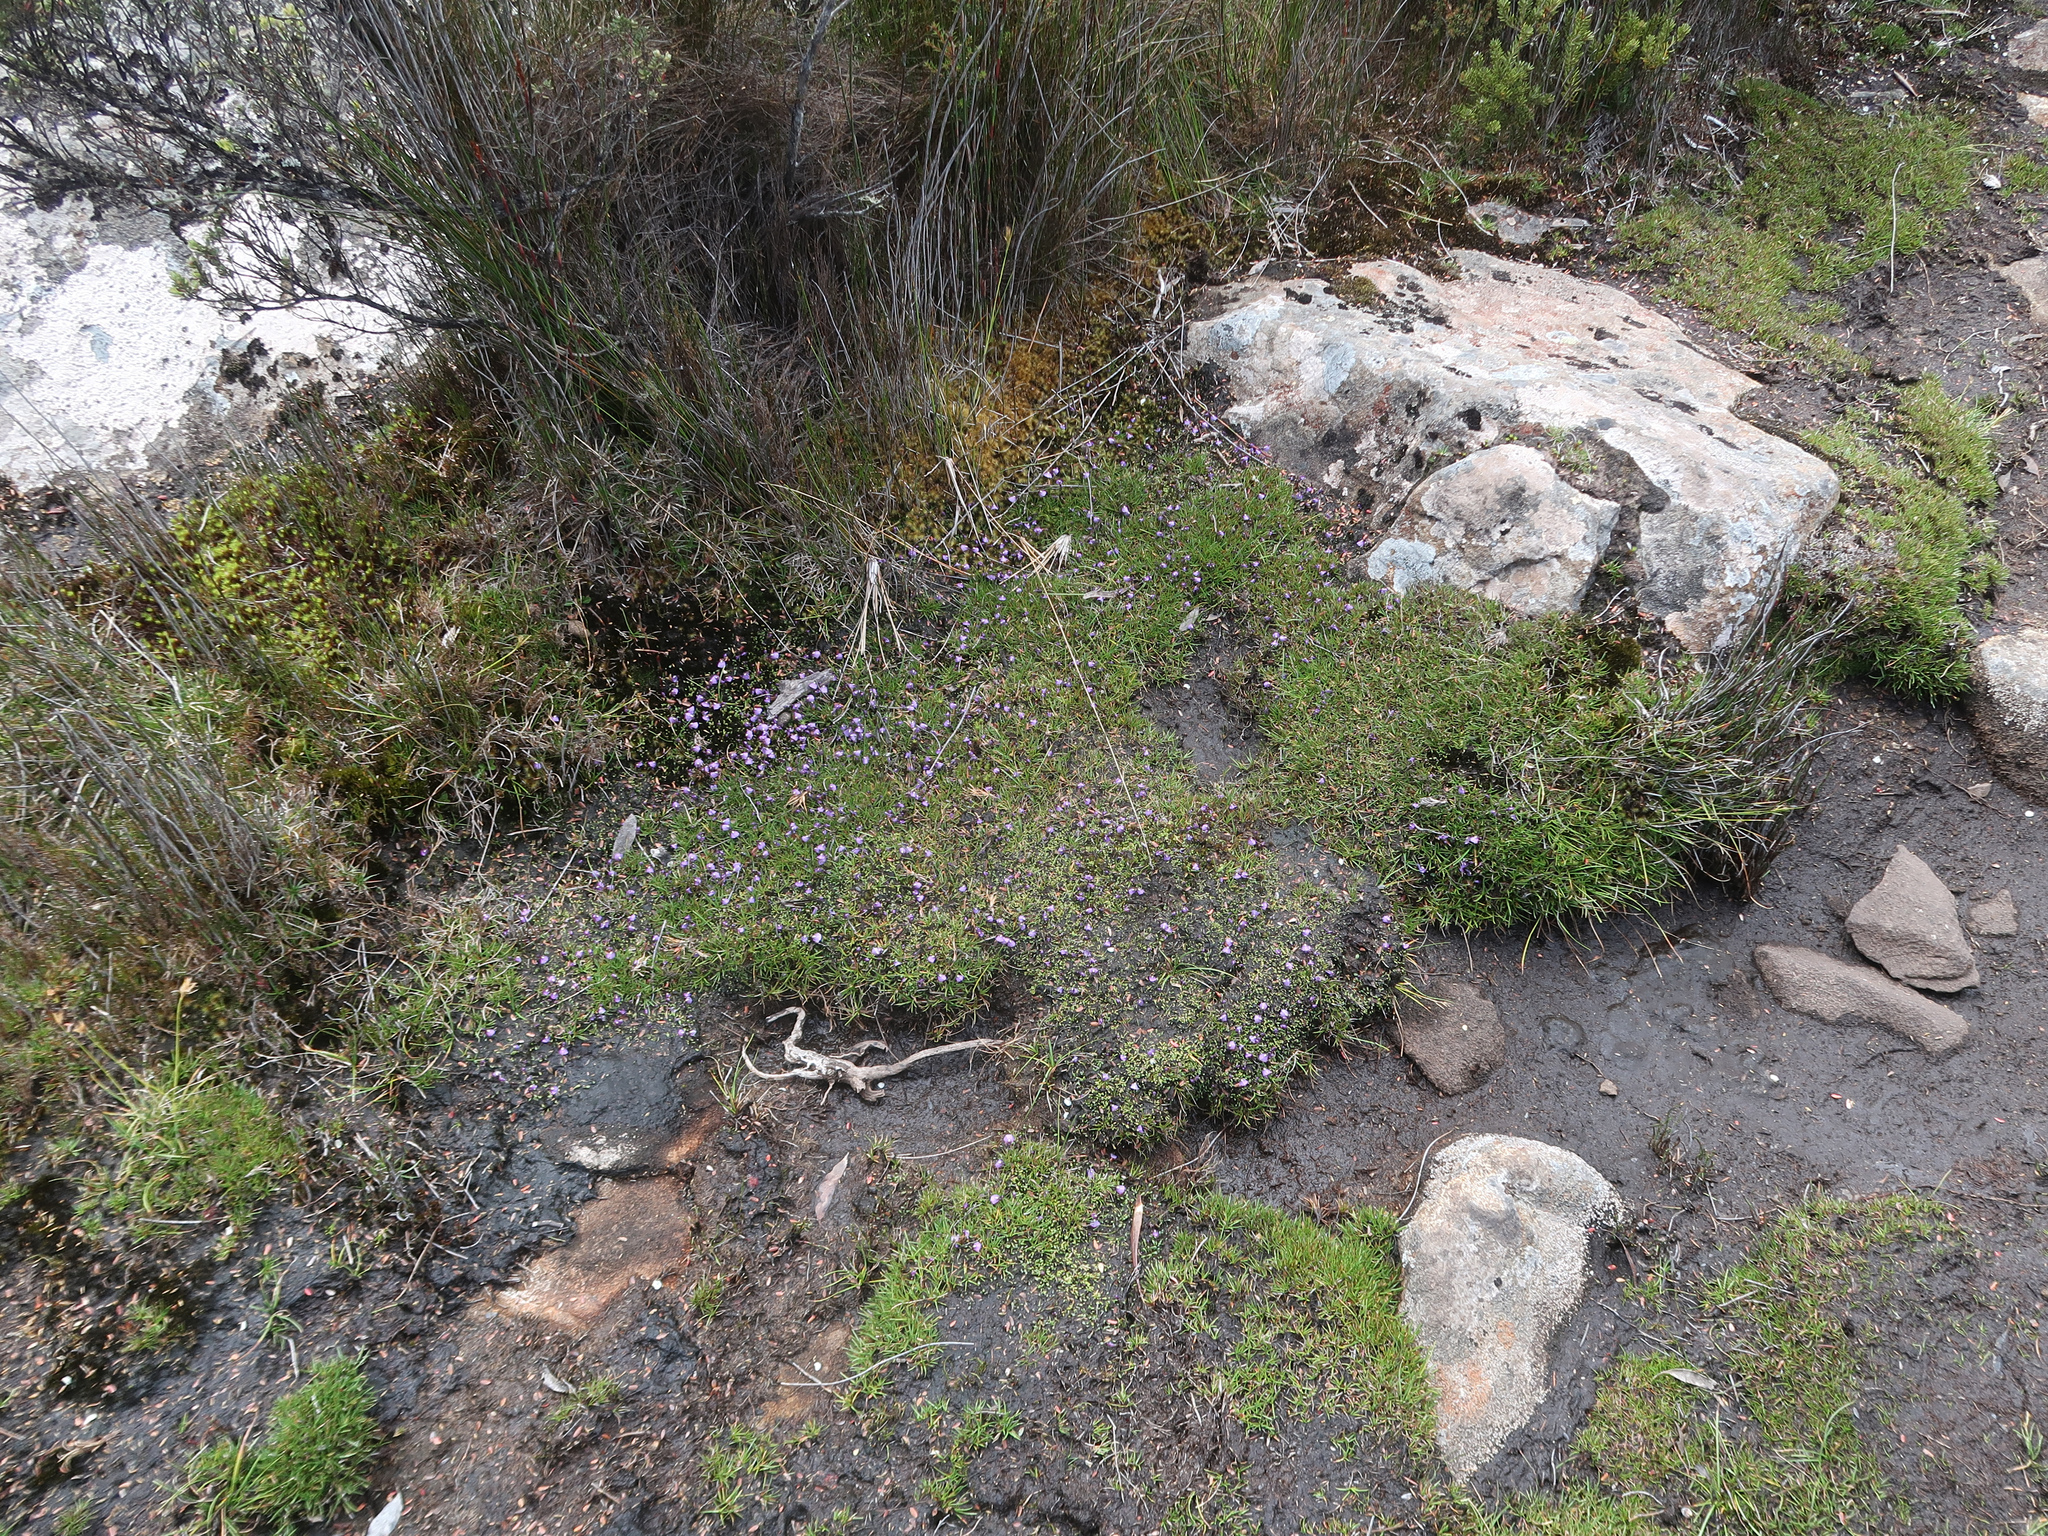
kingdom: Plantae
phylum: Tracheophyta
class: Magnoliopsida
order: Lamiales
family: Lentibulariaceae
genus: Utricularia
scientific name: Utricularia dichotoma
